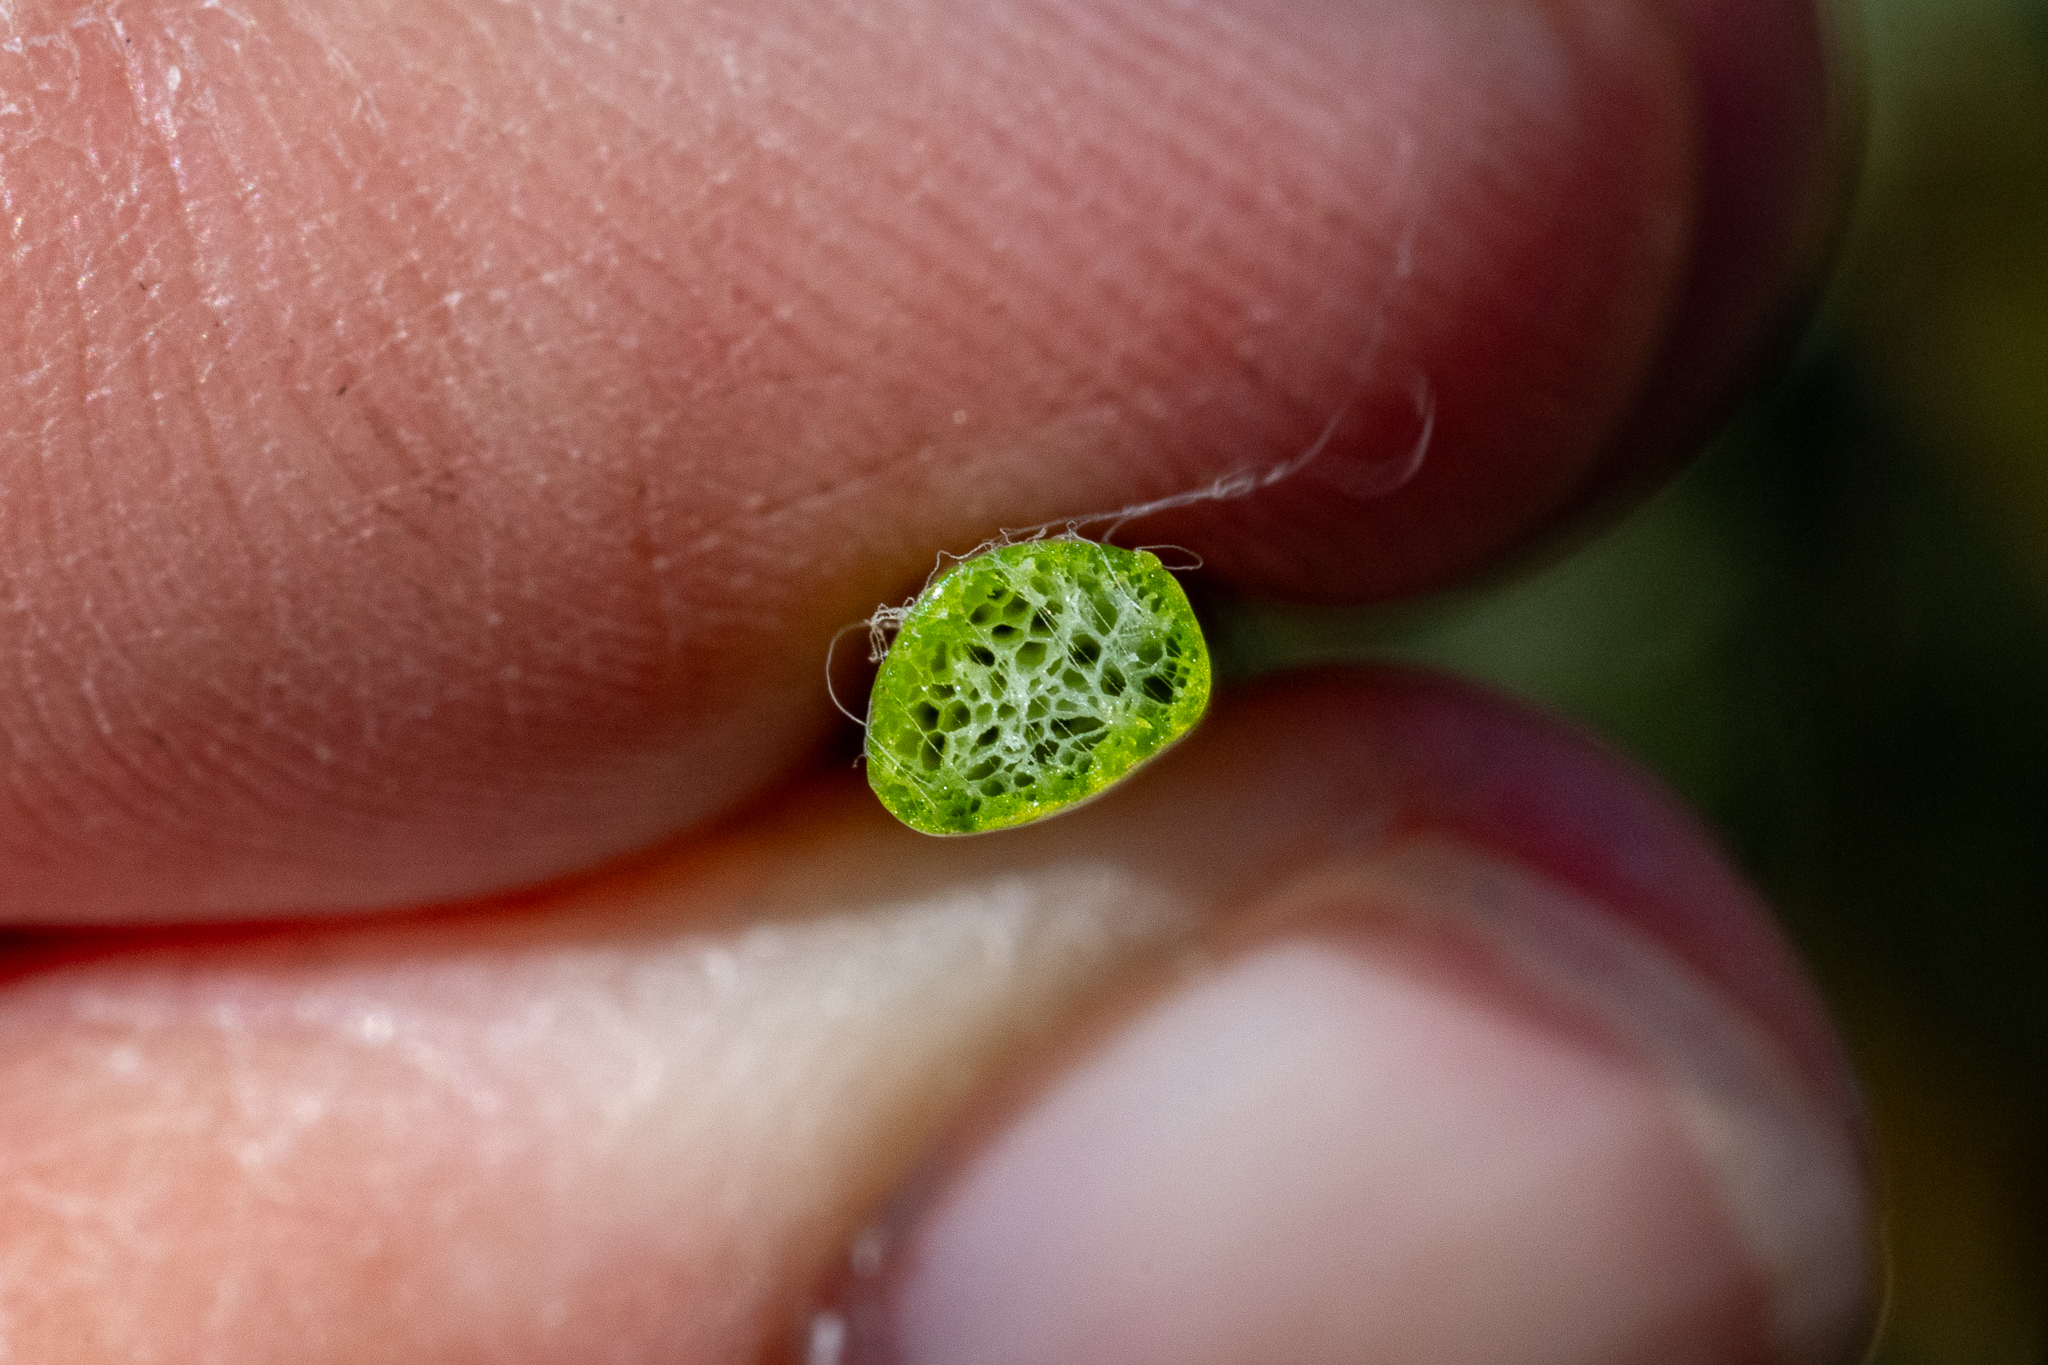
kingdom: Plantae
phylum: Tracheophyta
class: Liliopsida
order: Asparagales
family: Hypoxidaceae
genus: Pauridia
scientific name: Pauridia aquatica
